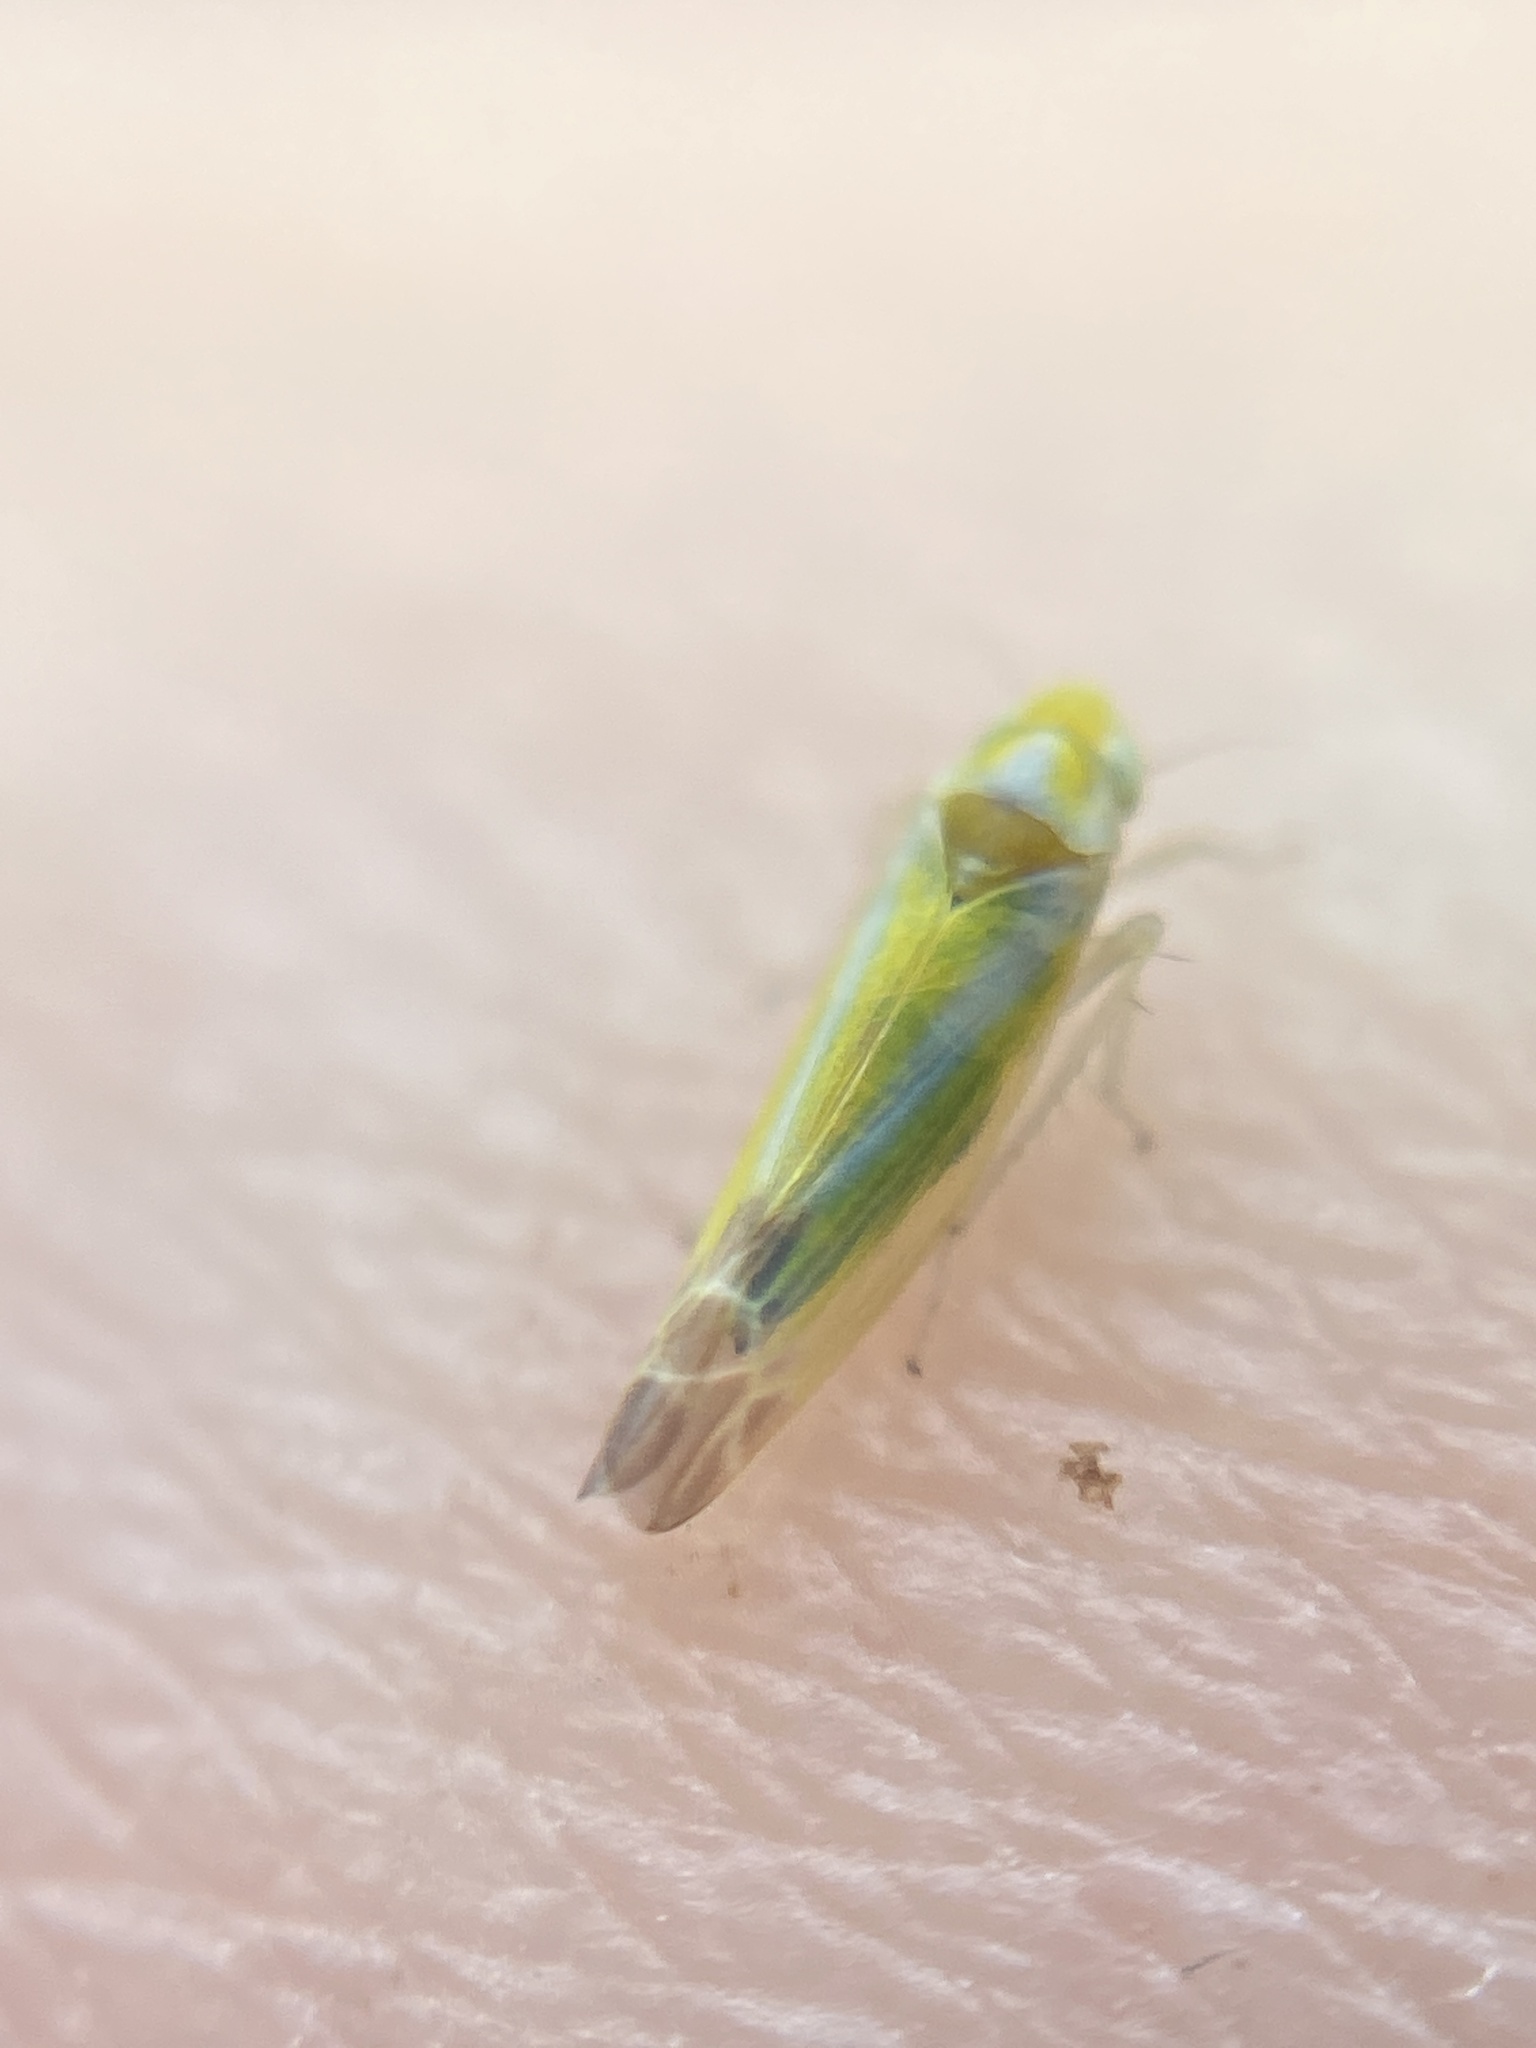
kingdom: Animalia
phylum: Arthropoda
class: Insecta
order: Hemiptera
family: Cicadellidae
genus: Lindbergina
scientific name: Lindbergina aurovittata
